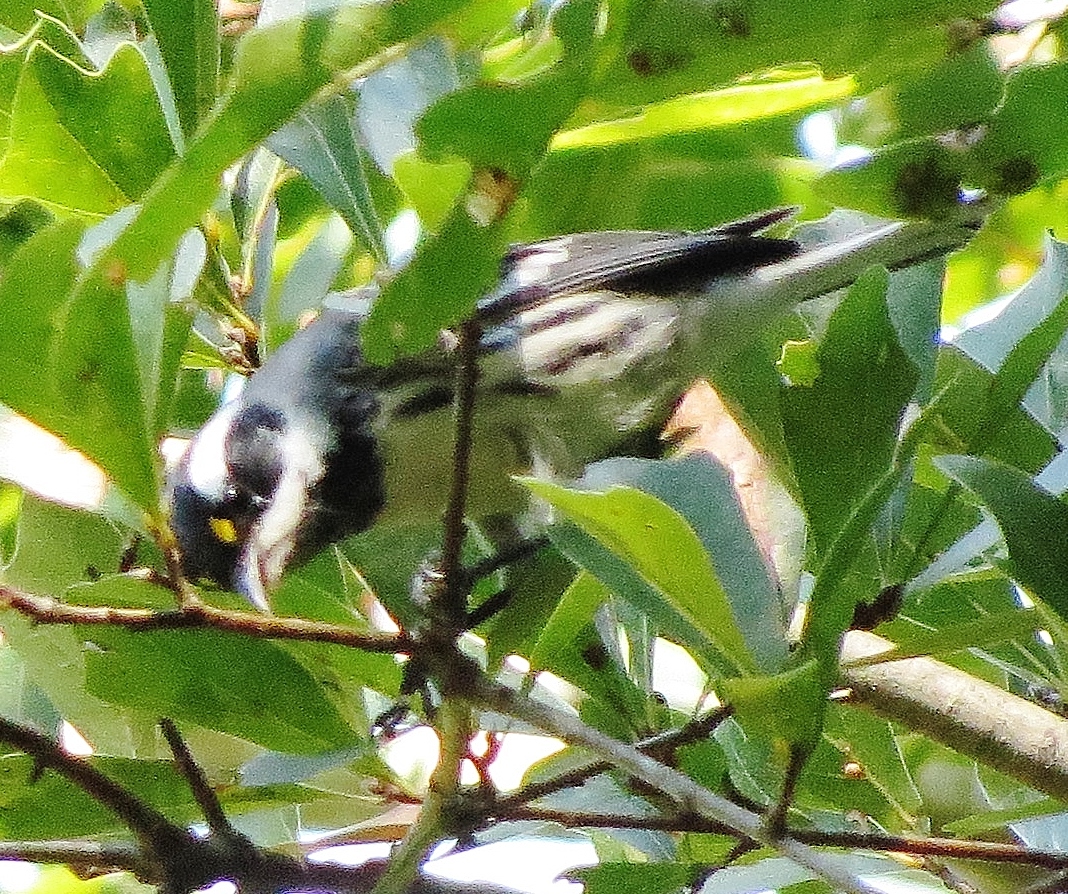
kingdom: Animalia
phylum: Chordata
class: Aves
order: Passeriformes
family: Parulidae
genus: Setophaga
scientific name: Setophaga nigrescens
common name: Black-throated gray warbler
